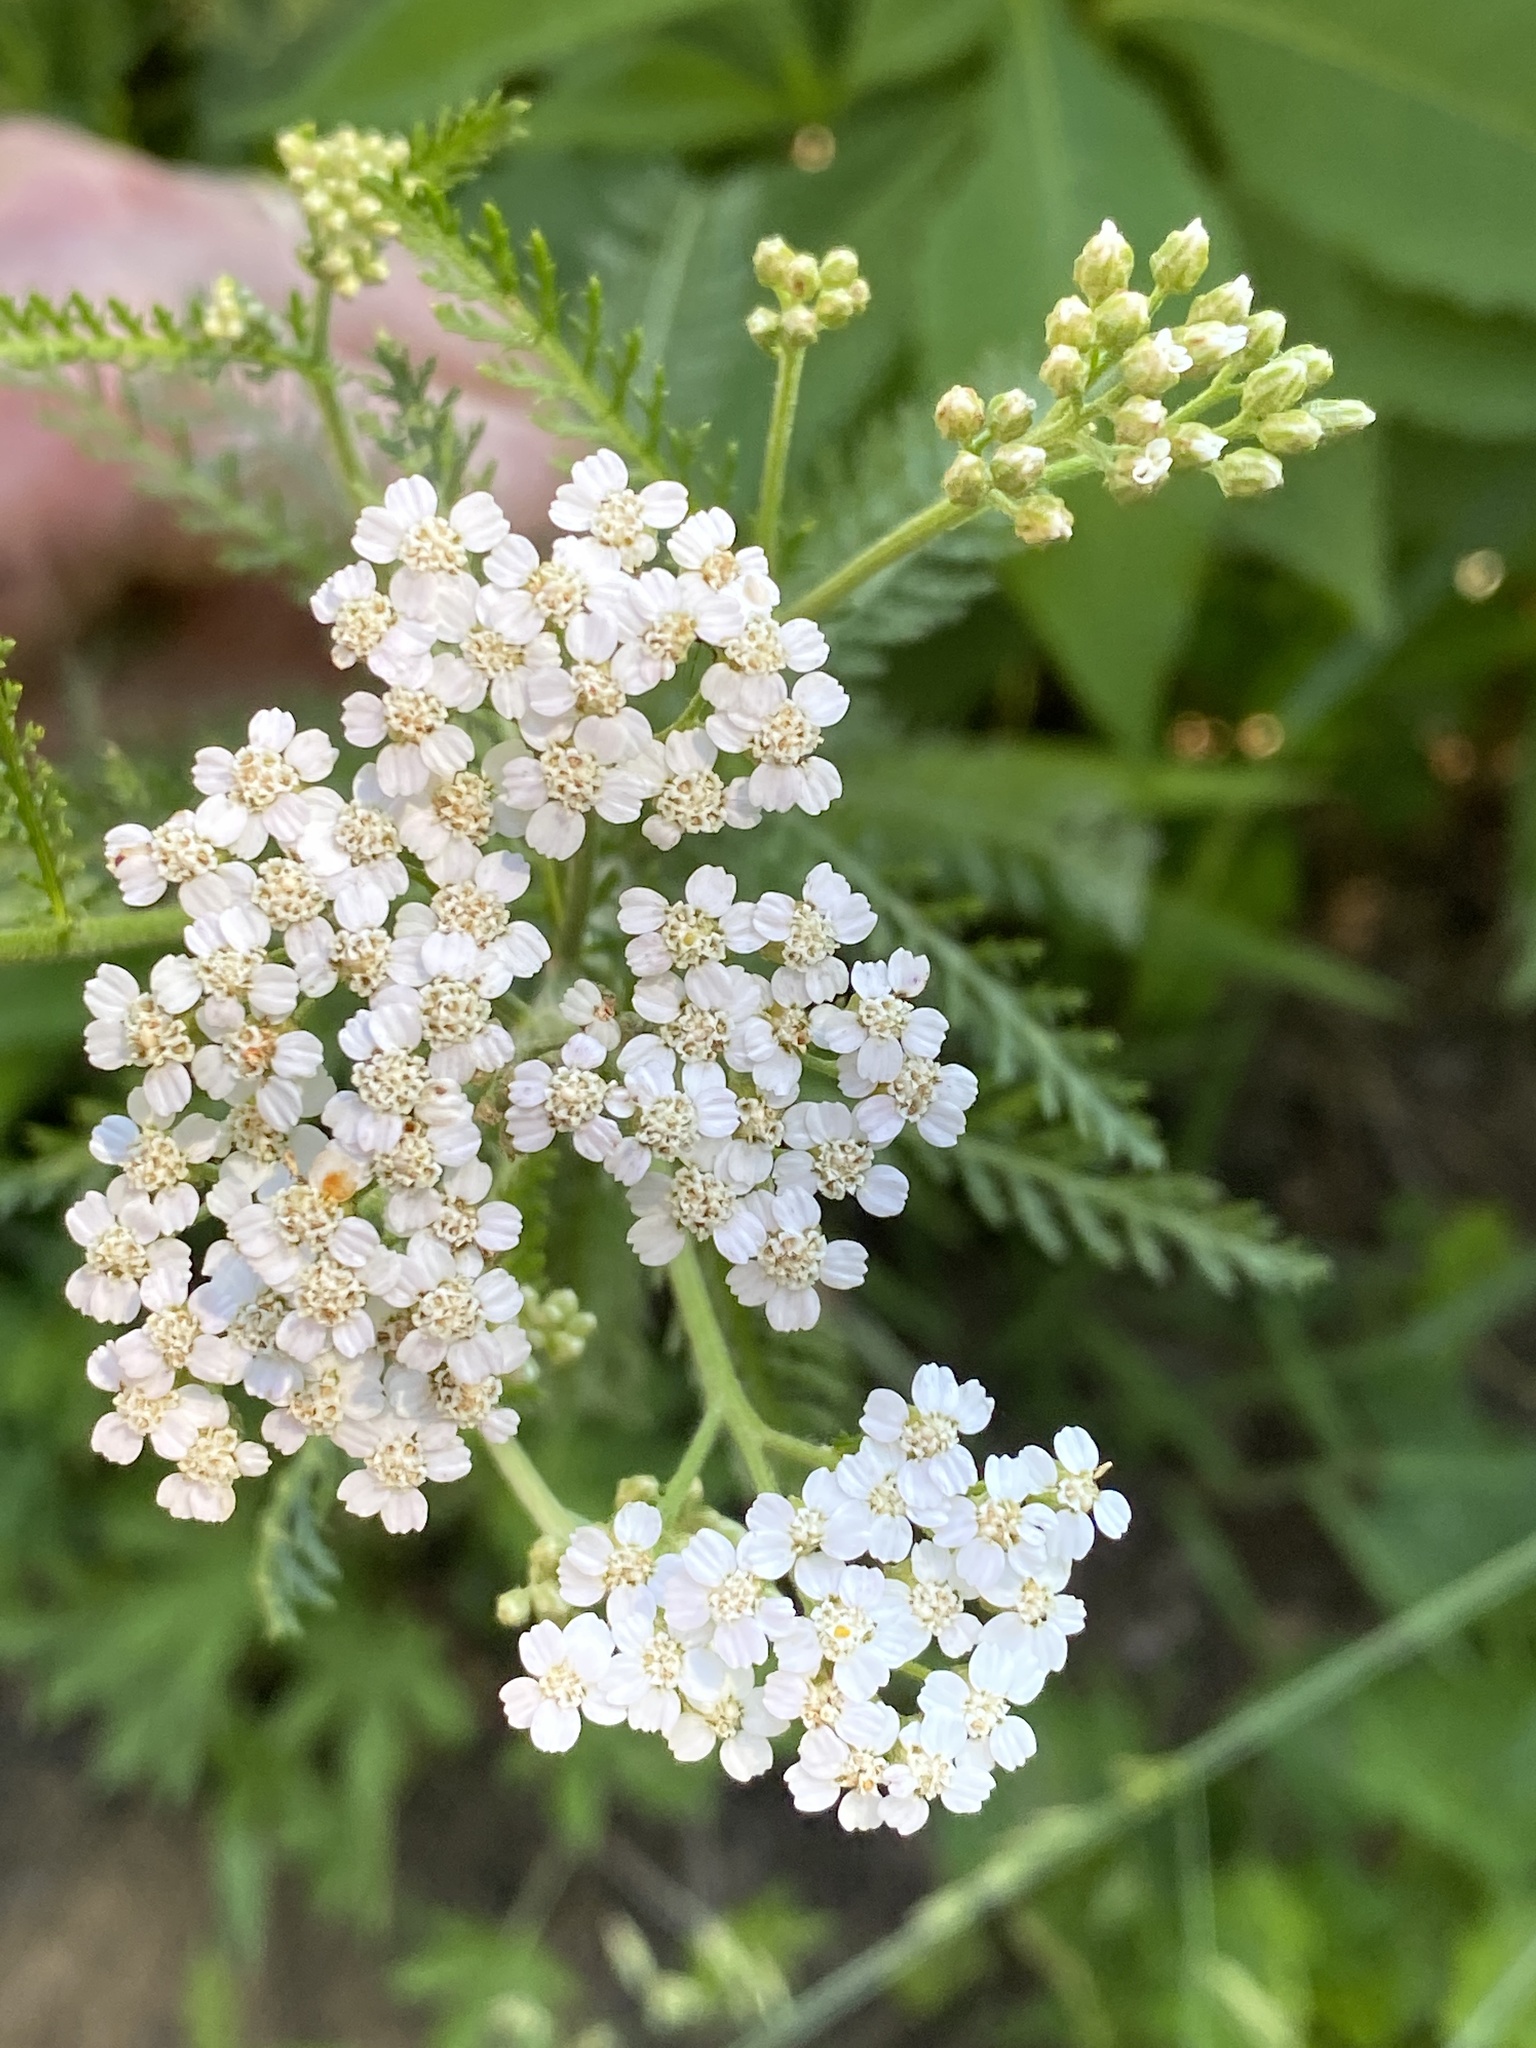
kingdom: Plantae
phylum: Tracheophyta
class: Magnoliopsida
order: Asterales
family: Asteraceae
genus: Achillea
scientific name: Achillea millefolium
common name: Yarrow
